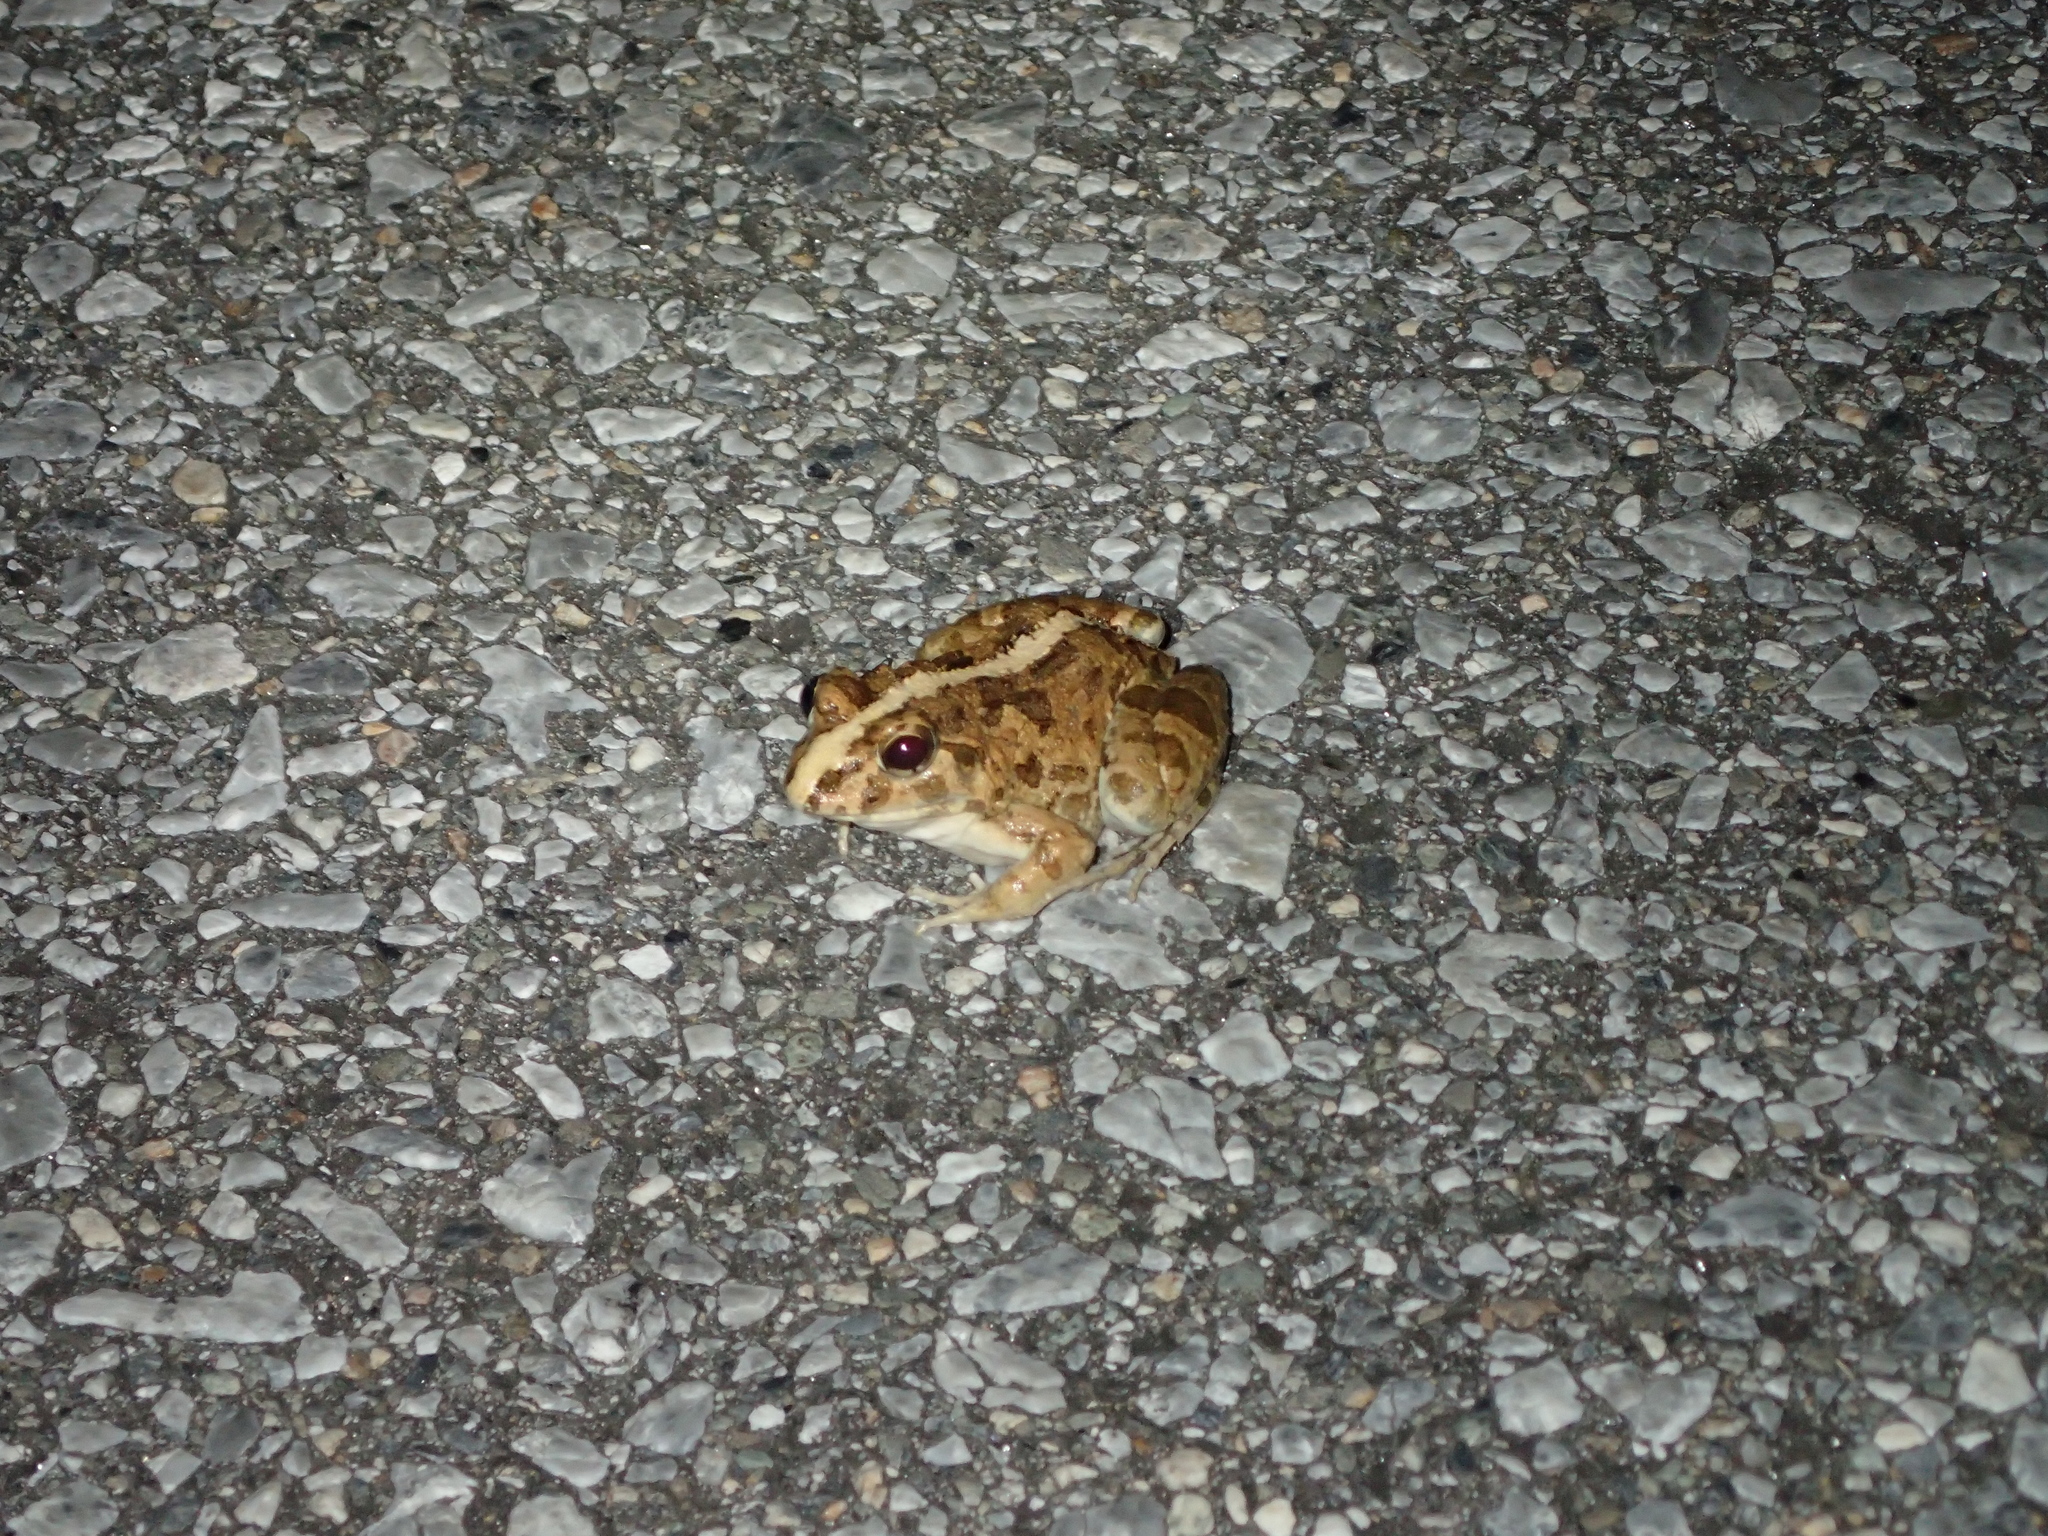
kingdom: Animalia
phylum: Chordata
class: Amphibia
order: Anura
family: Dicroglossidae
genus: Fejervarya
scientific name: Fejervarya sakishimensis
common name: Sakishima rice frog
